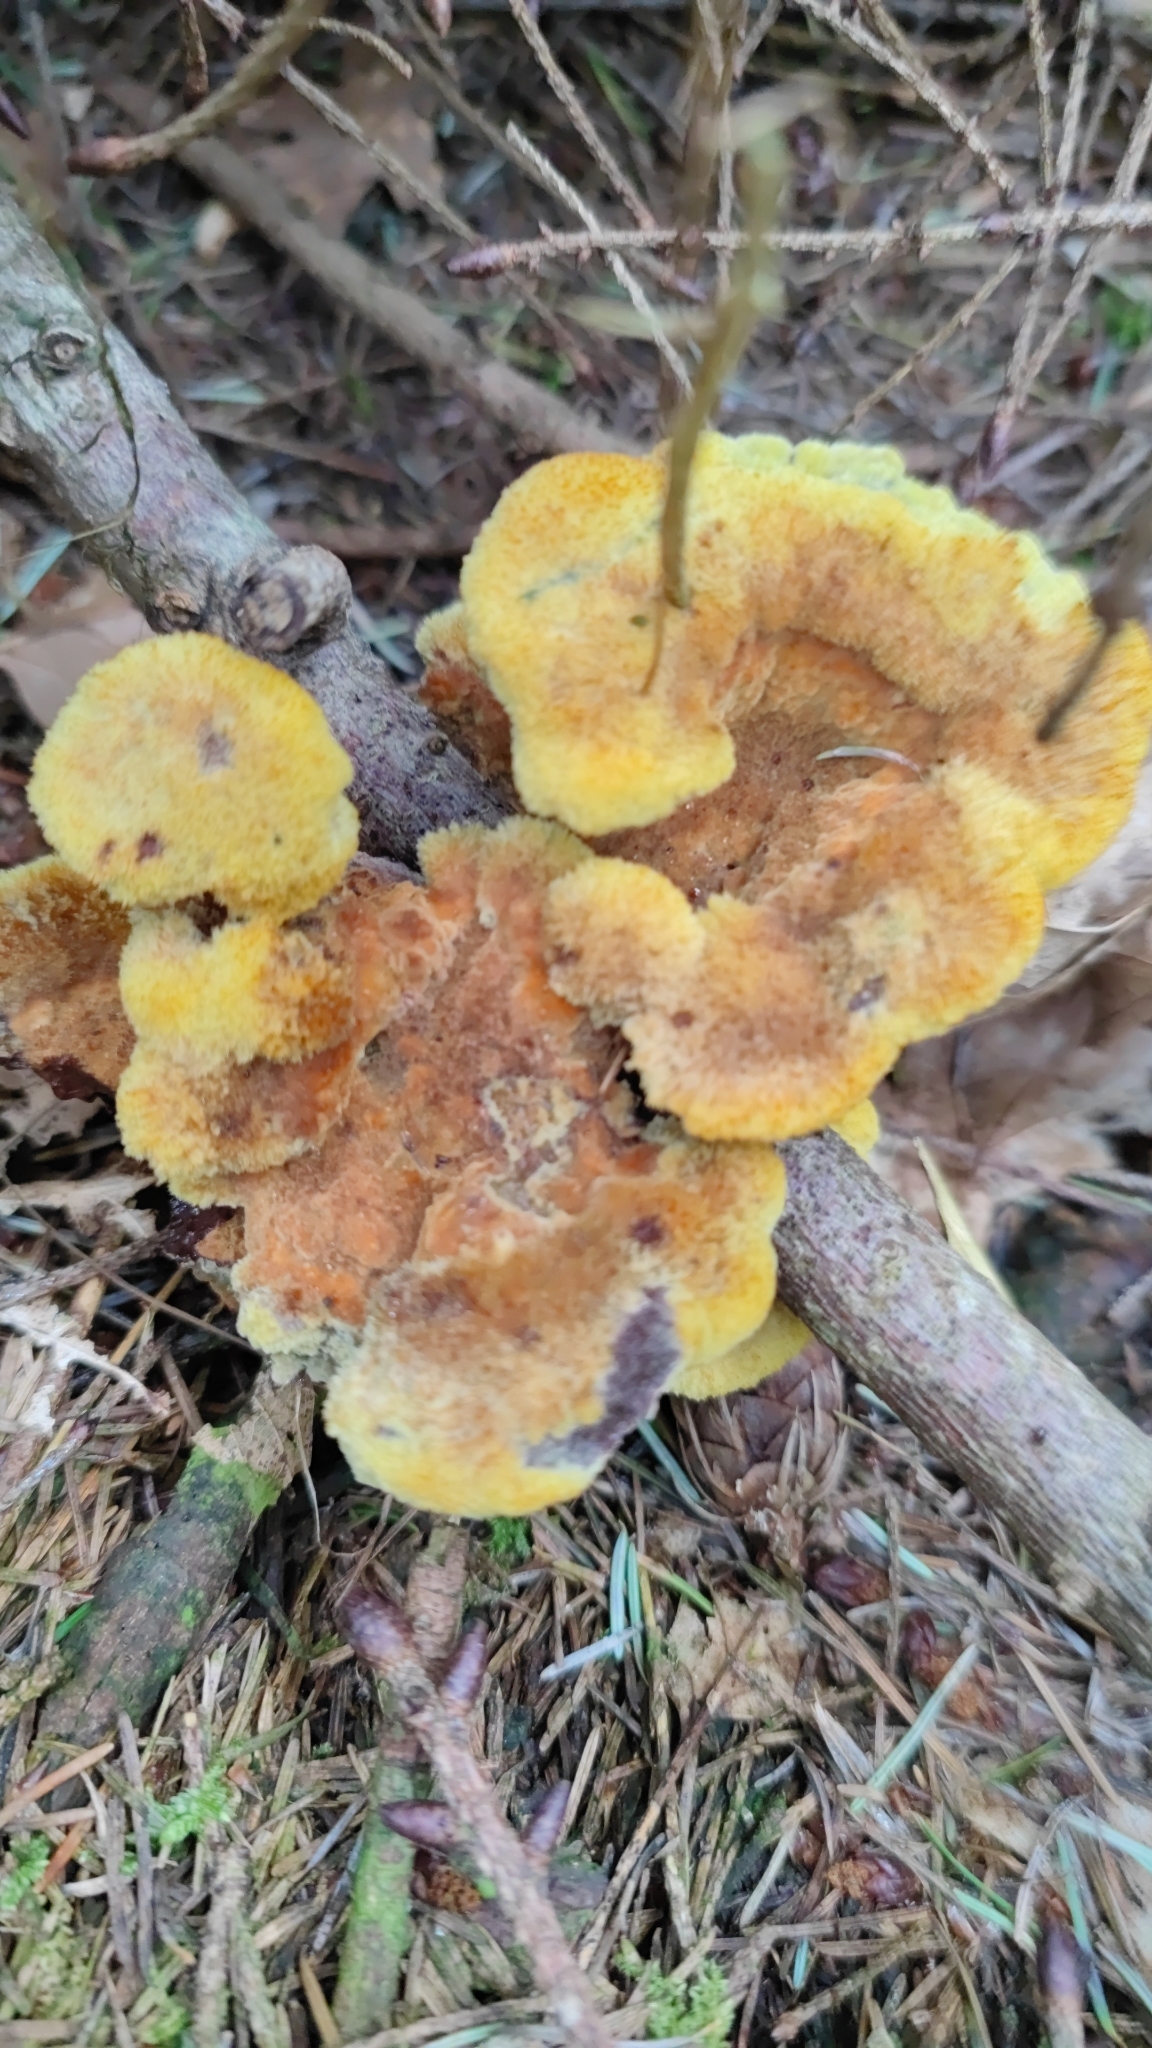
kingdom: Fungi
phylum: Basidiomycota
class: Agaricomycetes
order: Polyporales
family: Laetiporaceae
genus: Phaeolus
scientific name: Phaeolus schweinitzii
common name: Dyer's mazegill
